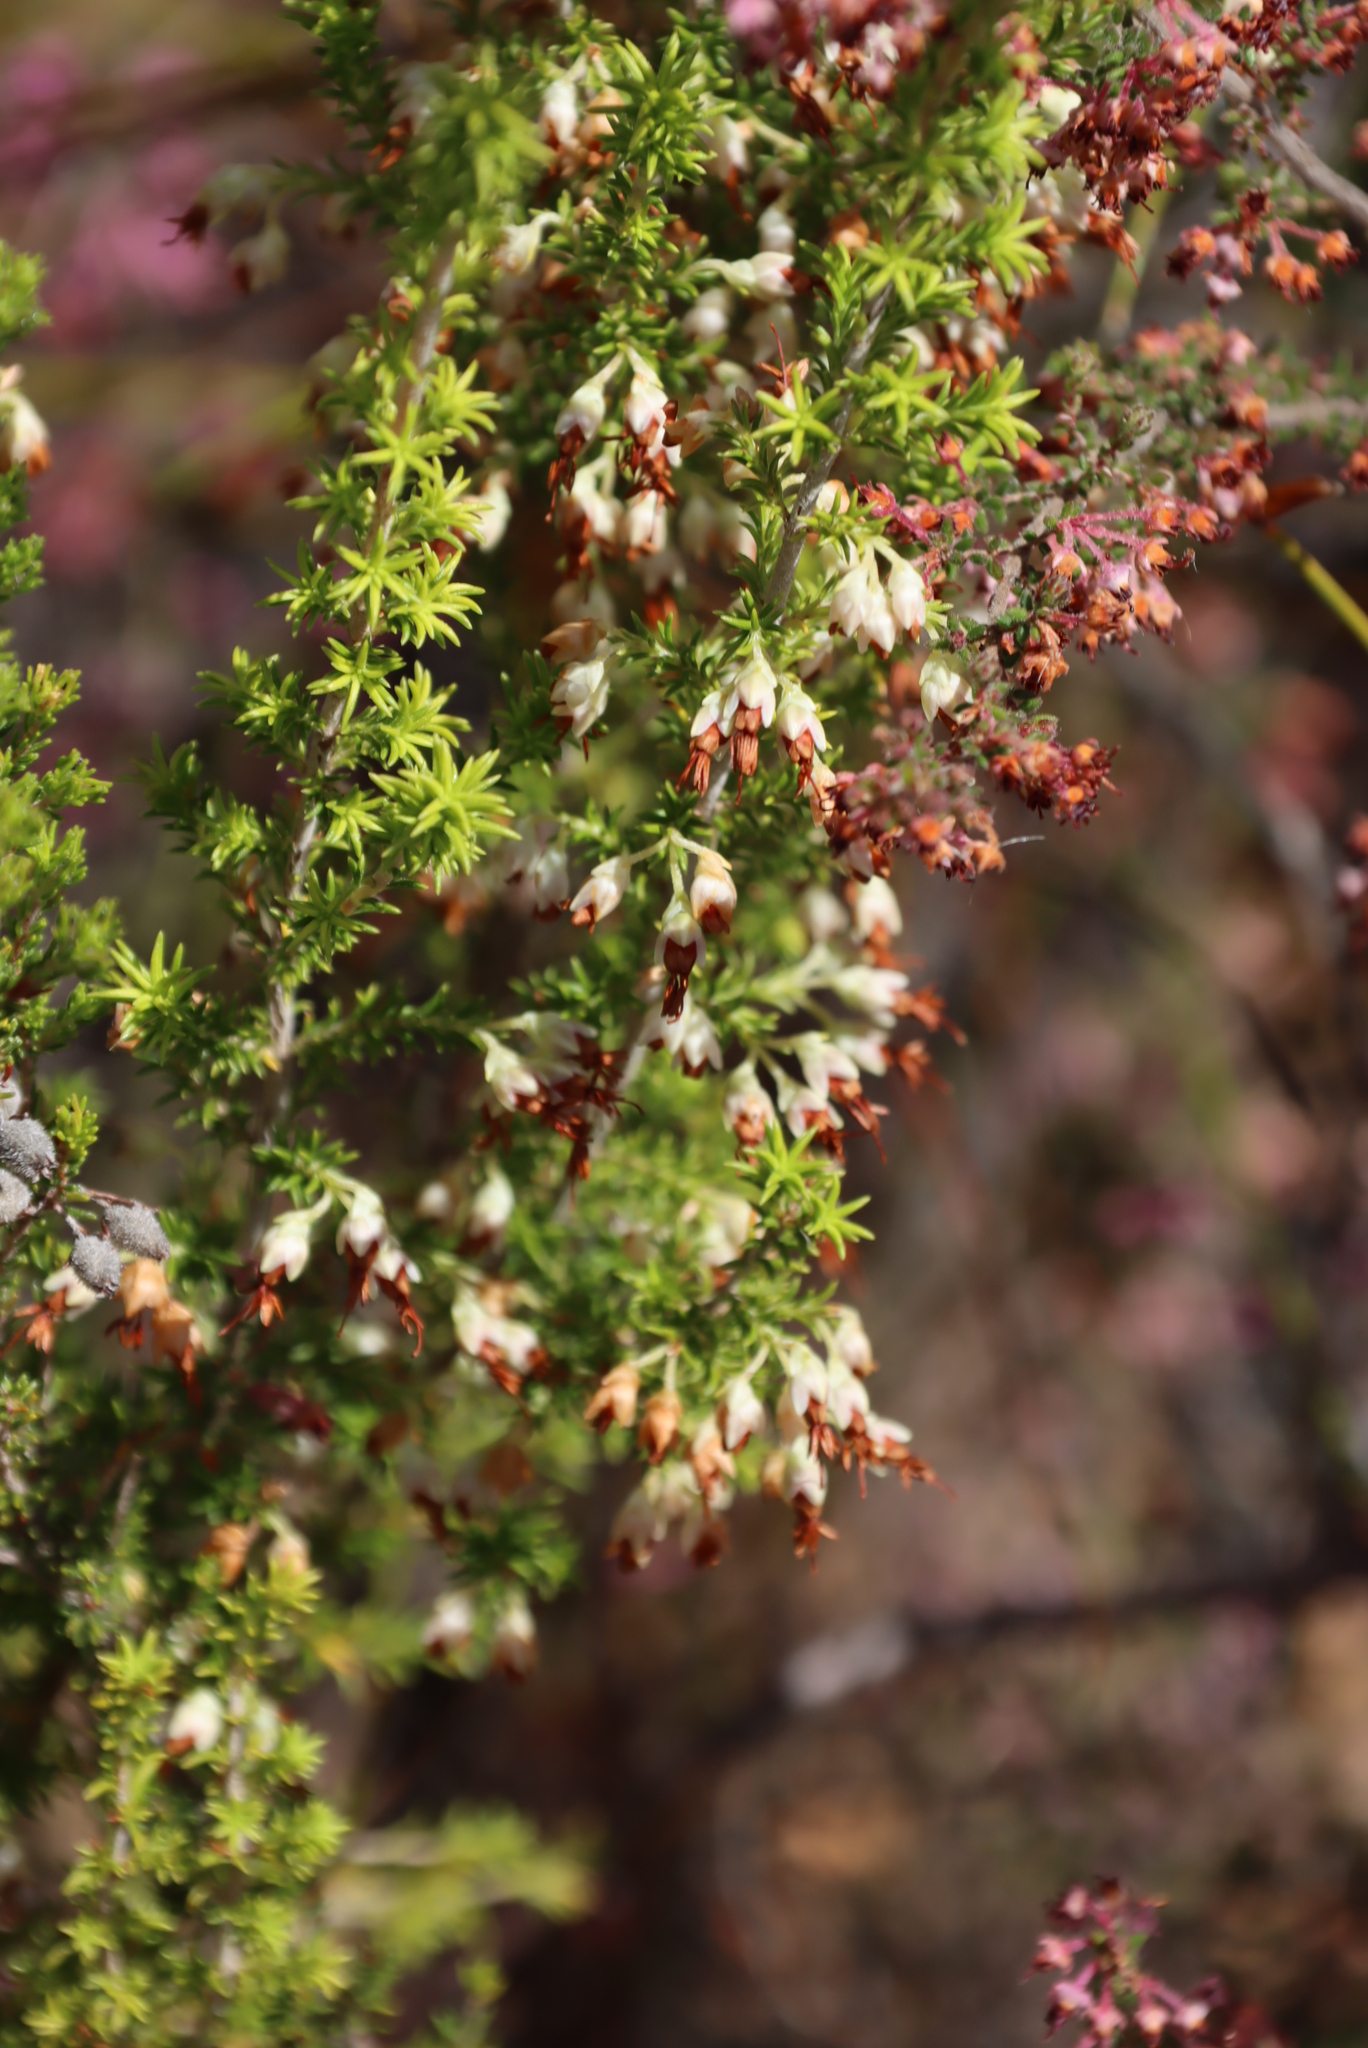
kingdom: Plantae
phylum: Tracheophyta
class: Magnoliopsida
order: Ericales
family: Ericaceae
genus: Erica
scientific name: Erica penicilliformis
